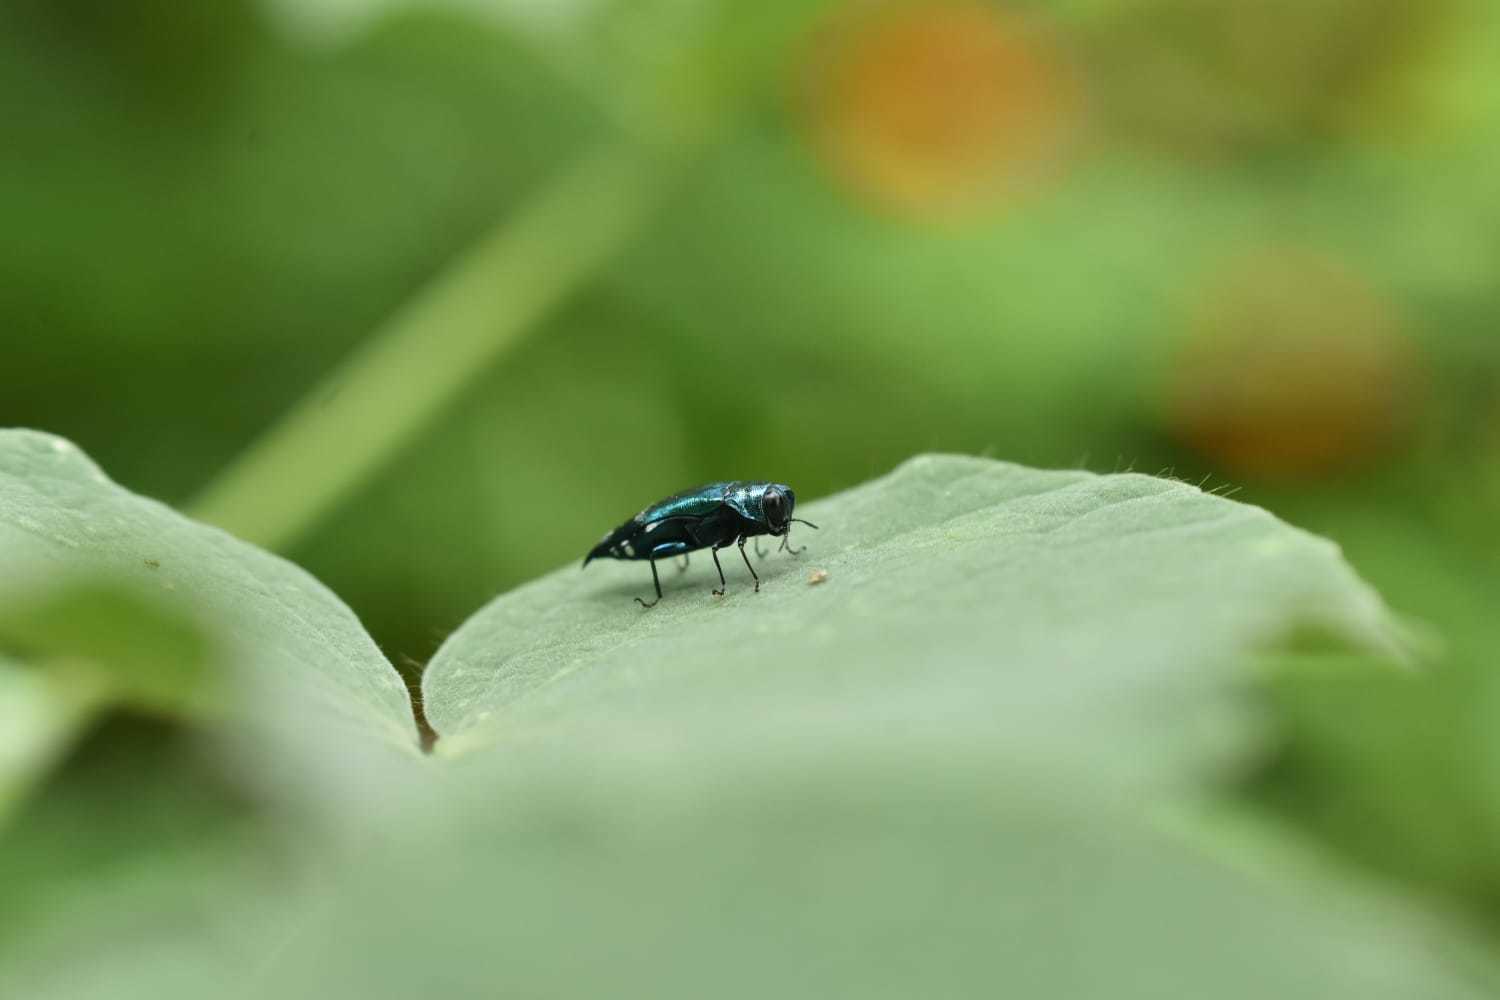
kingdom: Animalia
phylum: Arthropoda
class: Insecta
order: Coleoptera
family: Buprestidae
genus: Agrilus
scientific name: Agrilus acutus
